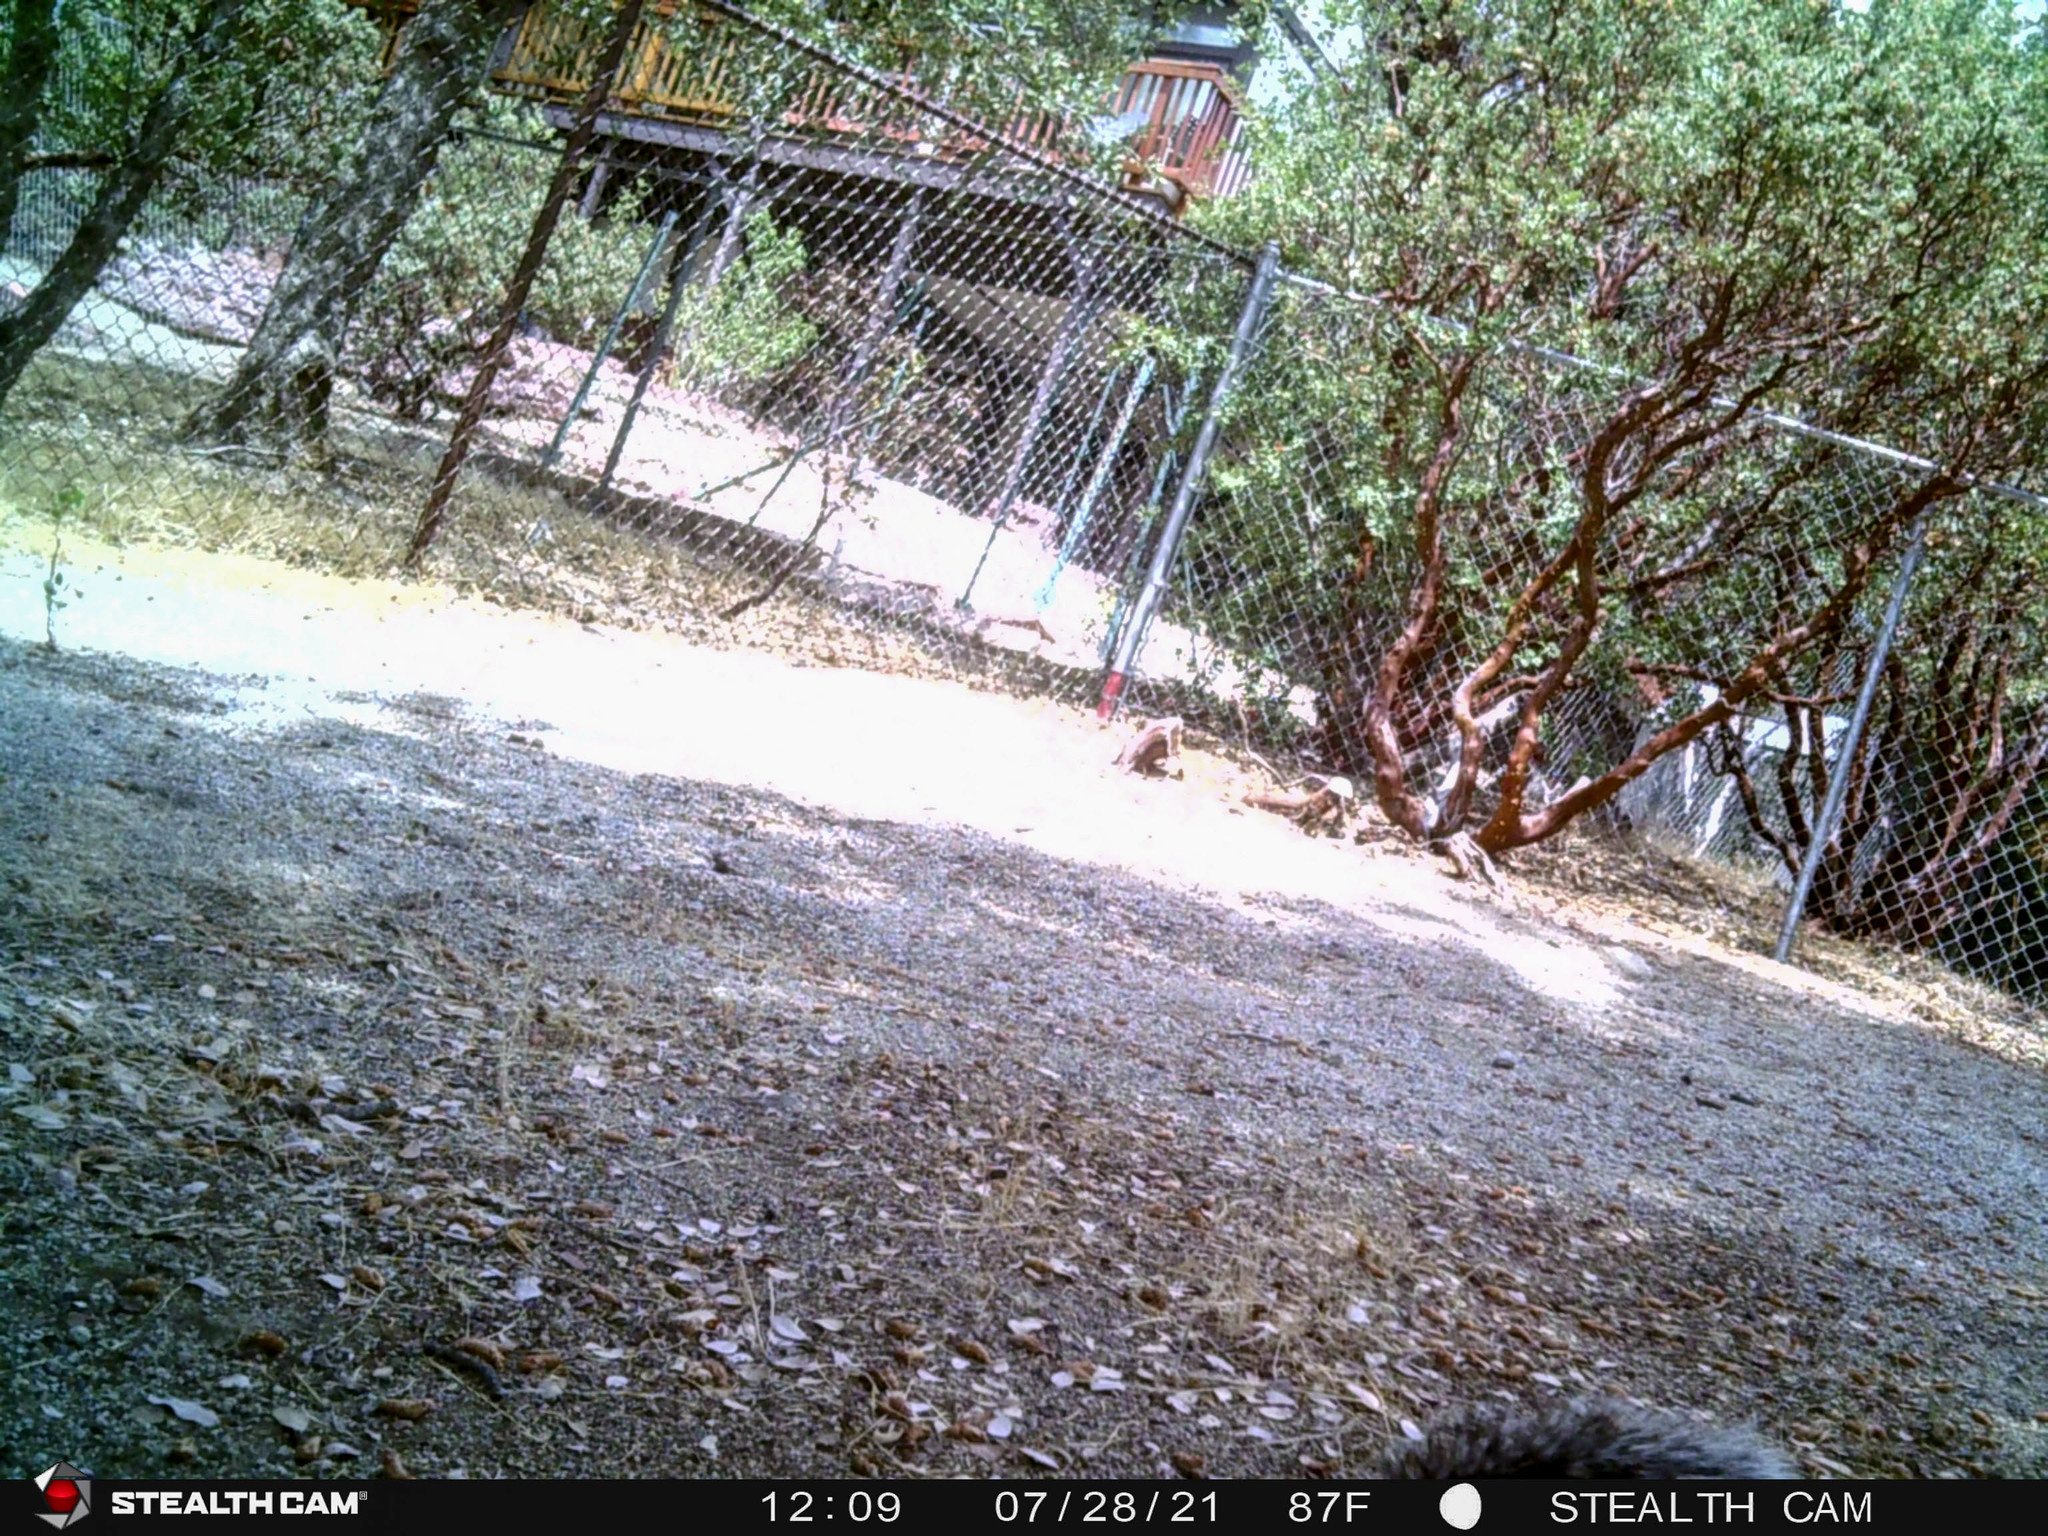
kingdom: Animalia
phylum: Chordata
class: Mammalia
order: Rodentia
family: Sciuridae
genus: Sciurus
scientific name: Sciurus griseus
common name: Western gray squirrel
